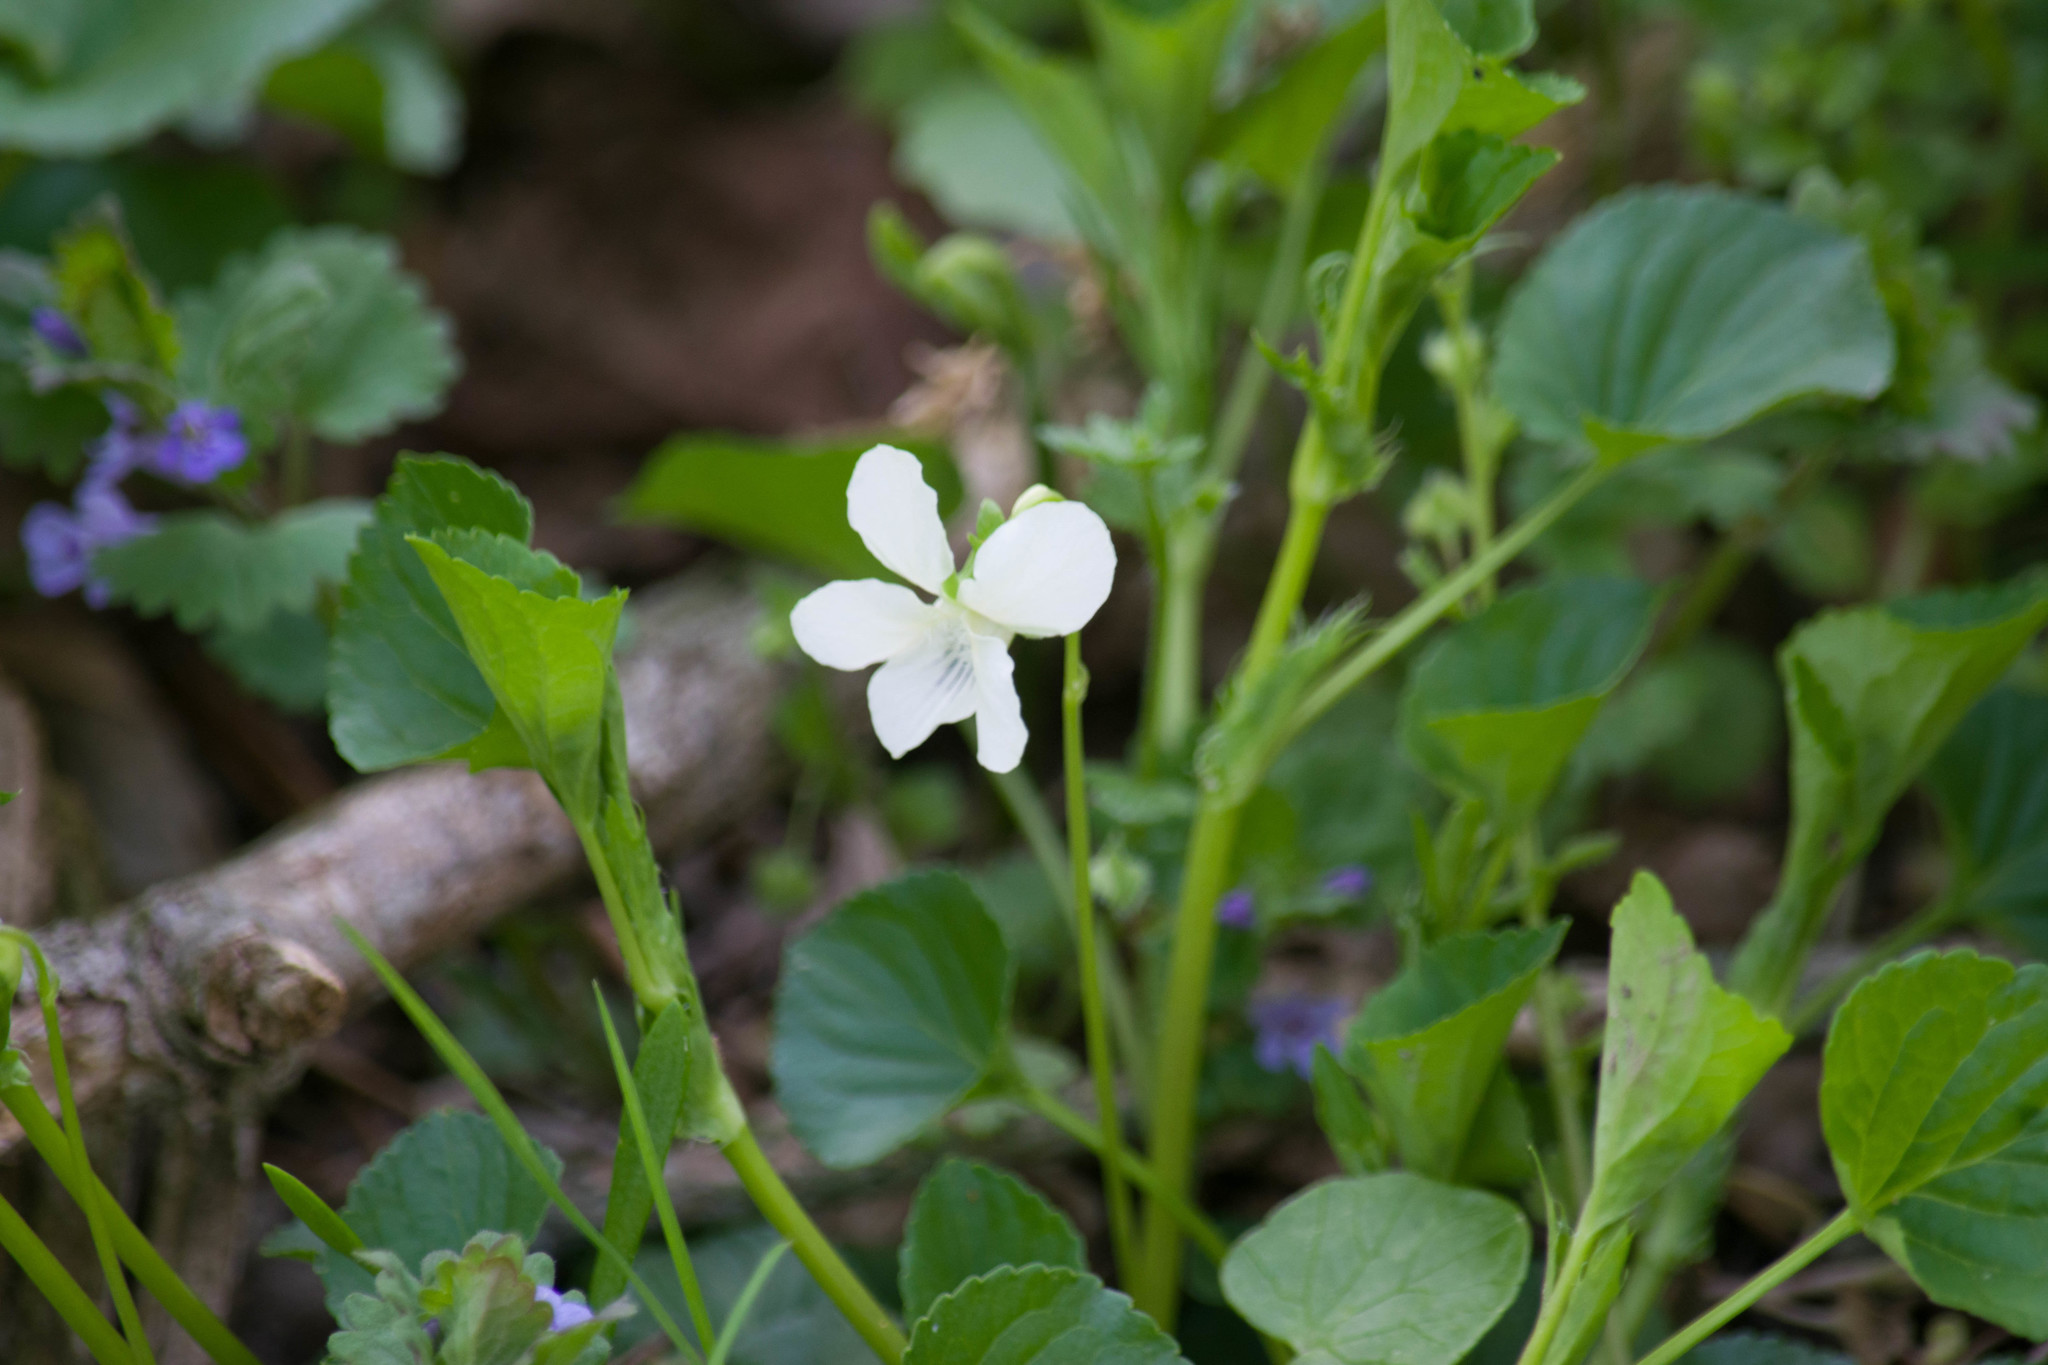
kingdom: Plantae
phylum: Tracheophyta
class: Magnoliopsida
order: Malpighiales
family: Violaceae
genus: Viola
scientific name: Viola striata
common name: Cream violet
